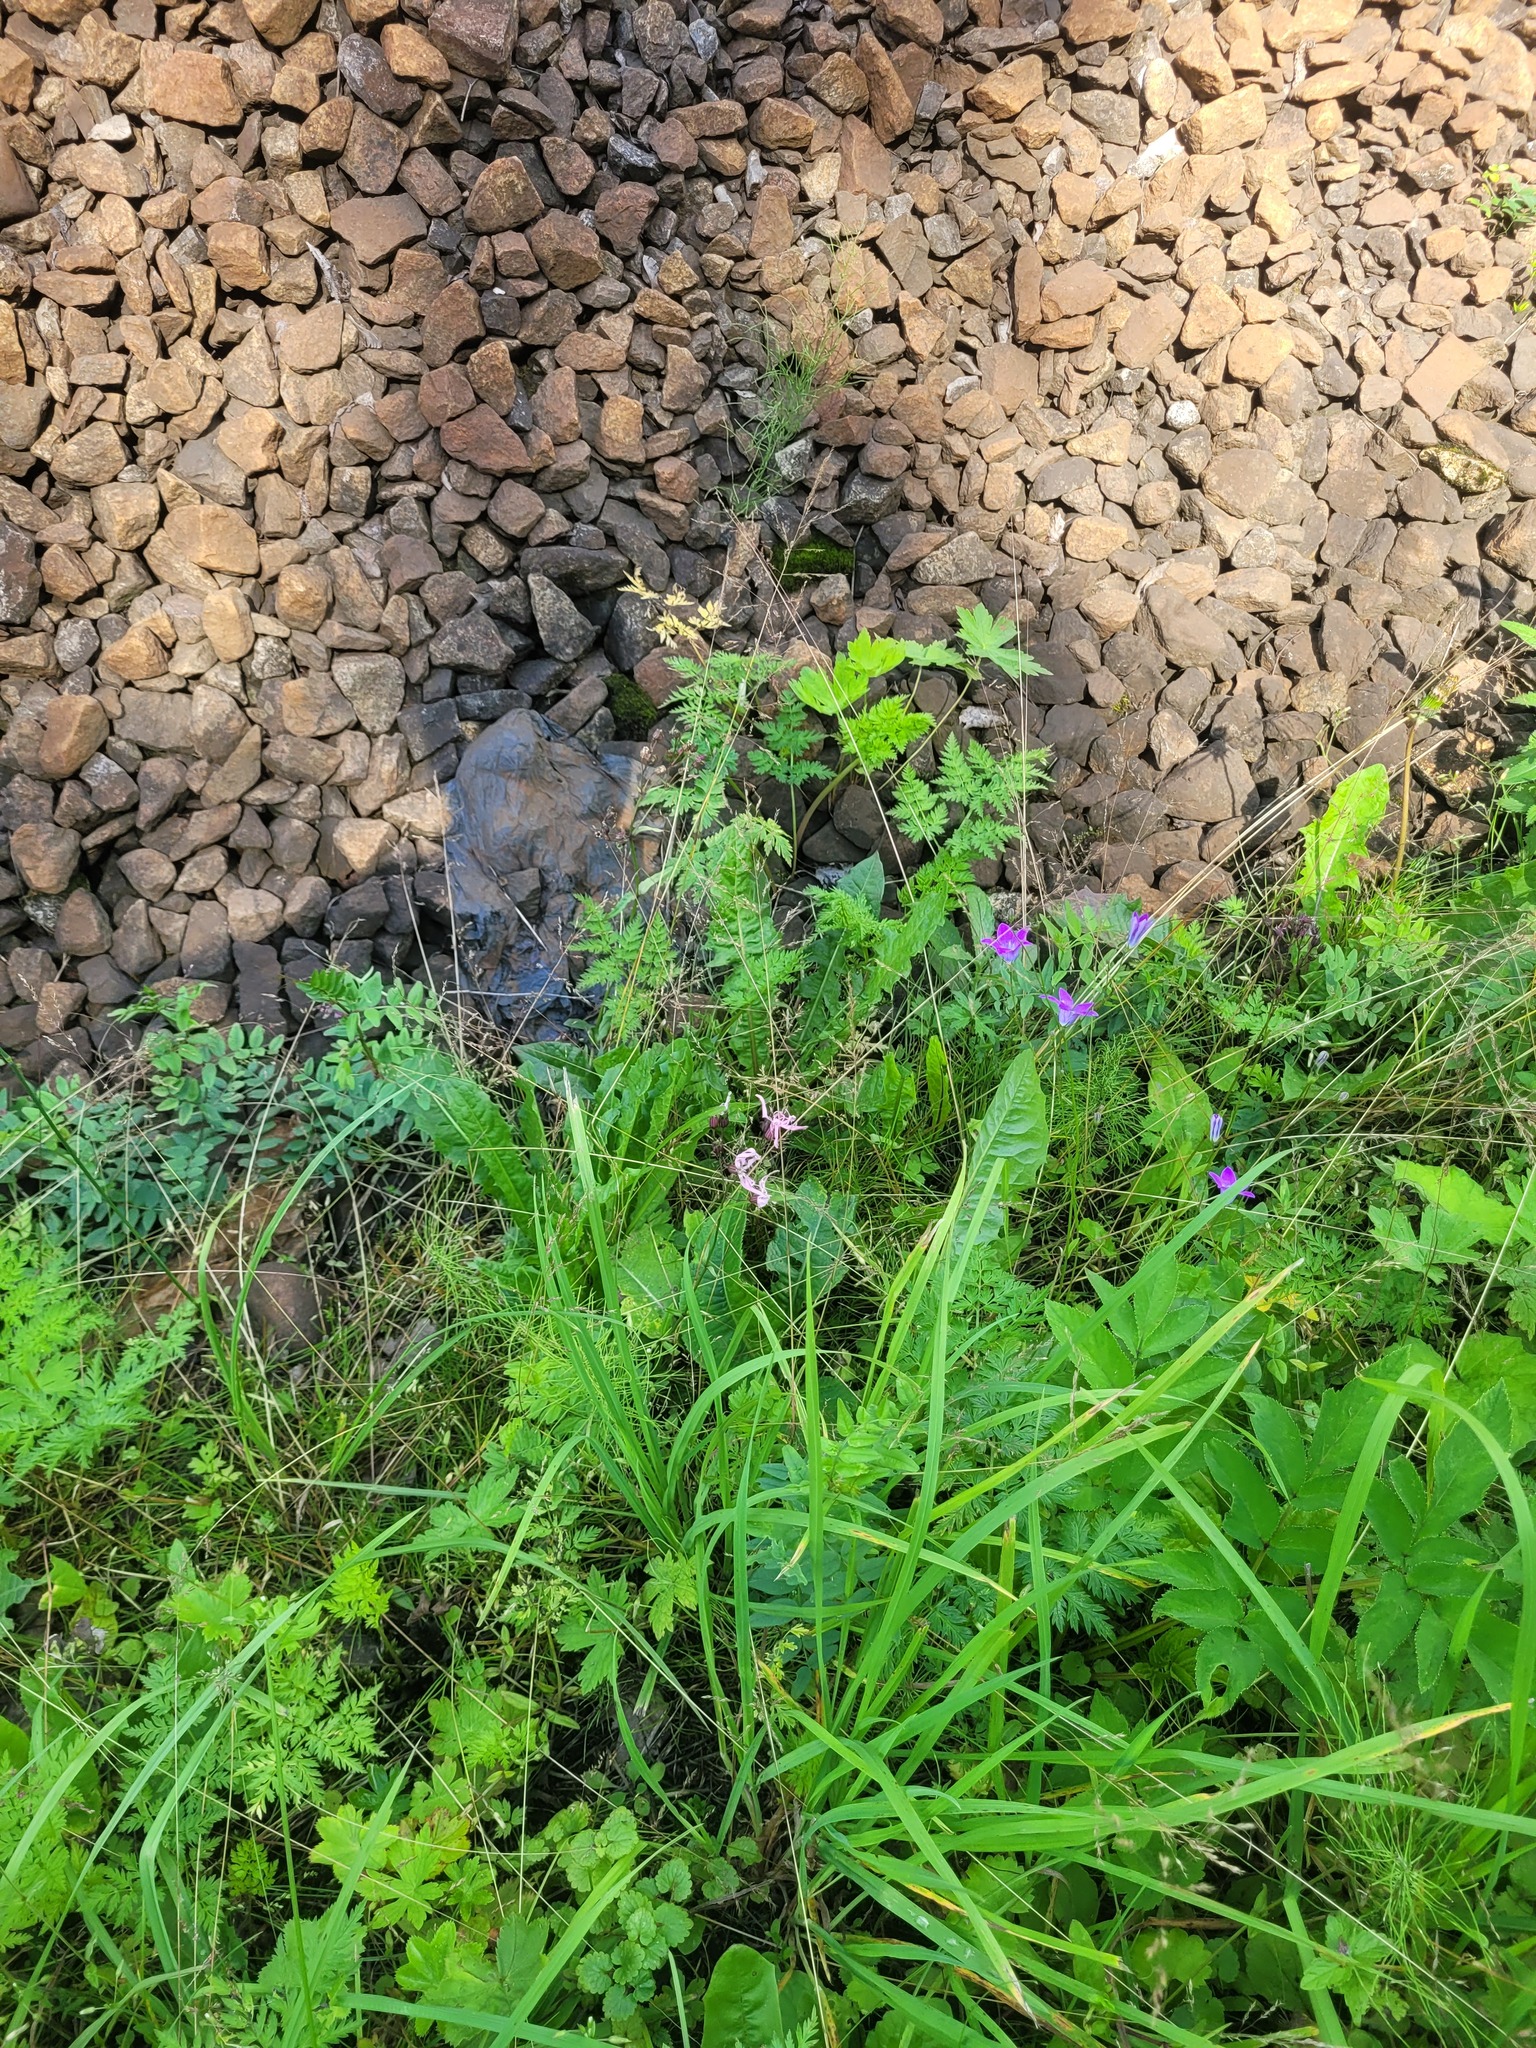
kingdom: Plantae
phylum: Tracheophyta
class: Magnoliopsida
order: Caryophyllales
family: Caryophyllaceae
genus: Silene
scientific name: Silene flos-cuculi
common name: Ragged-robin
